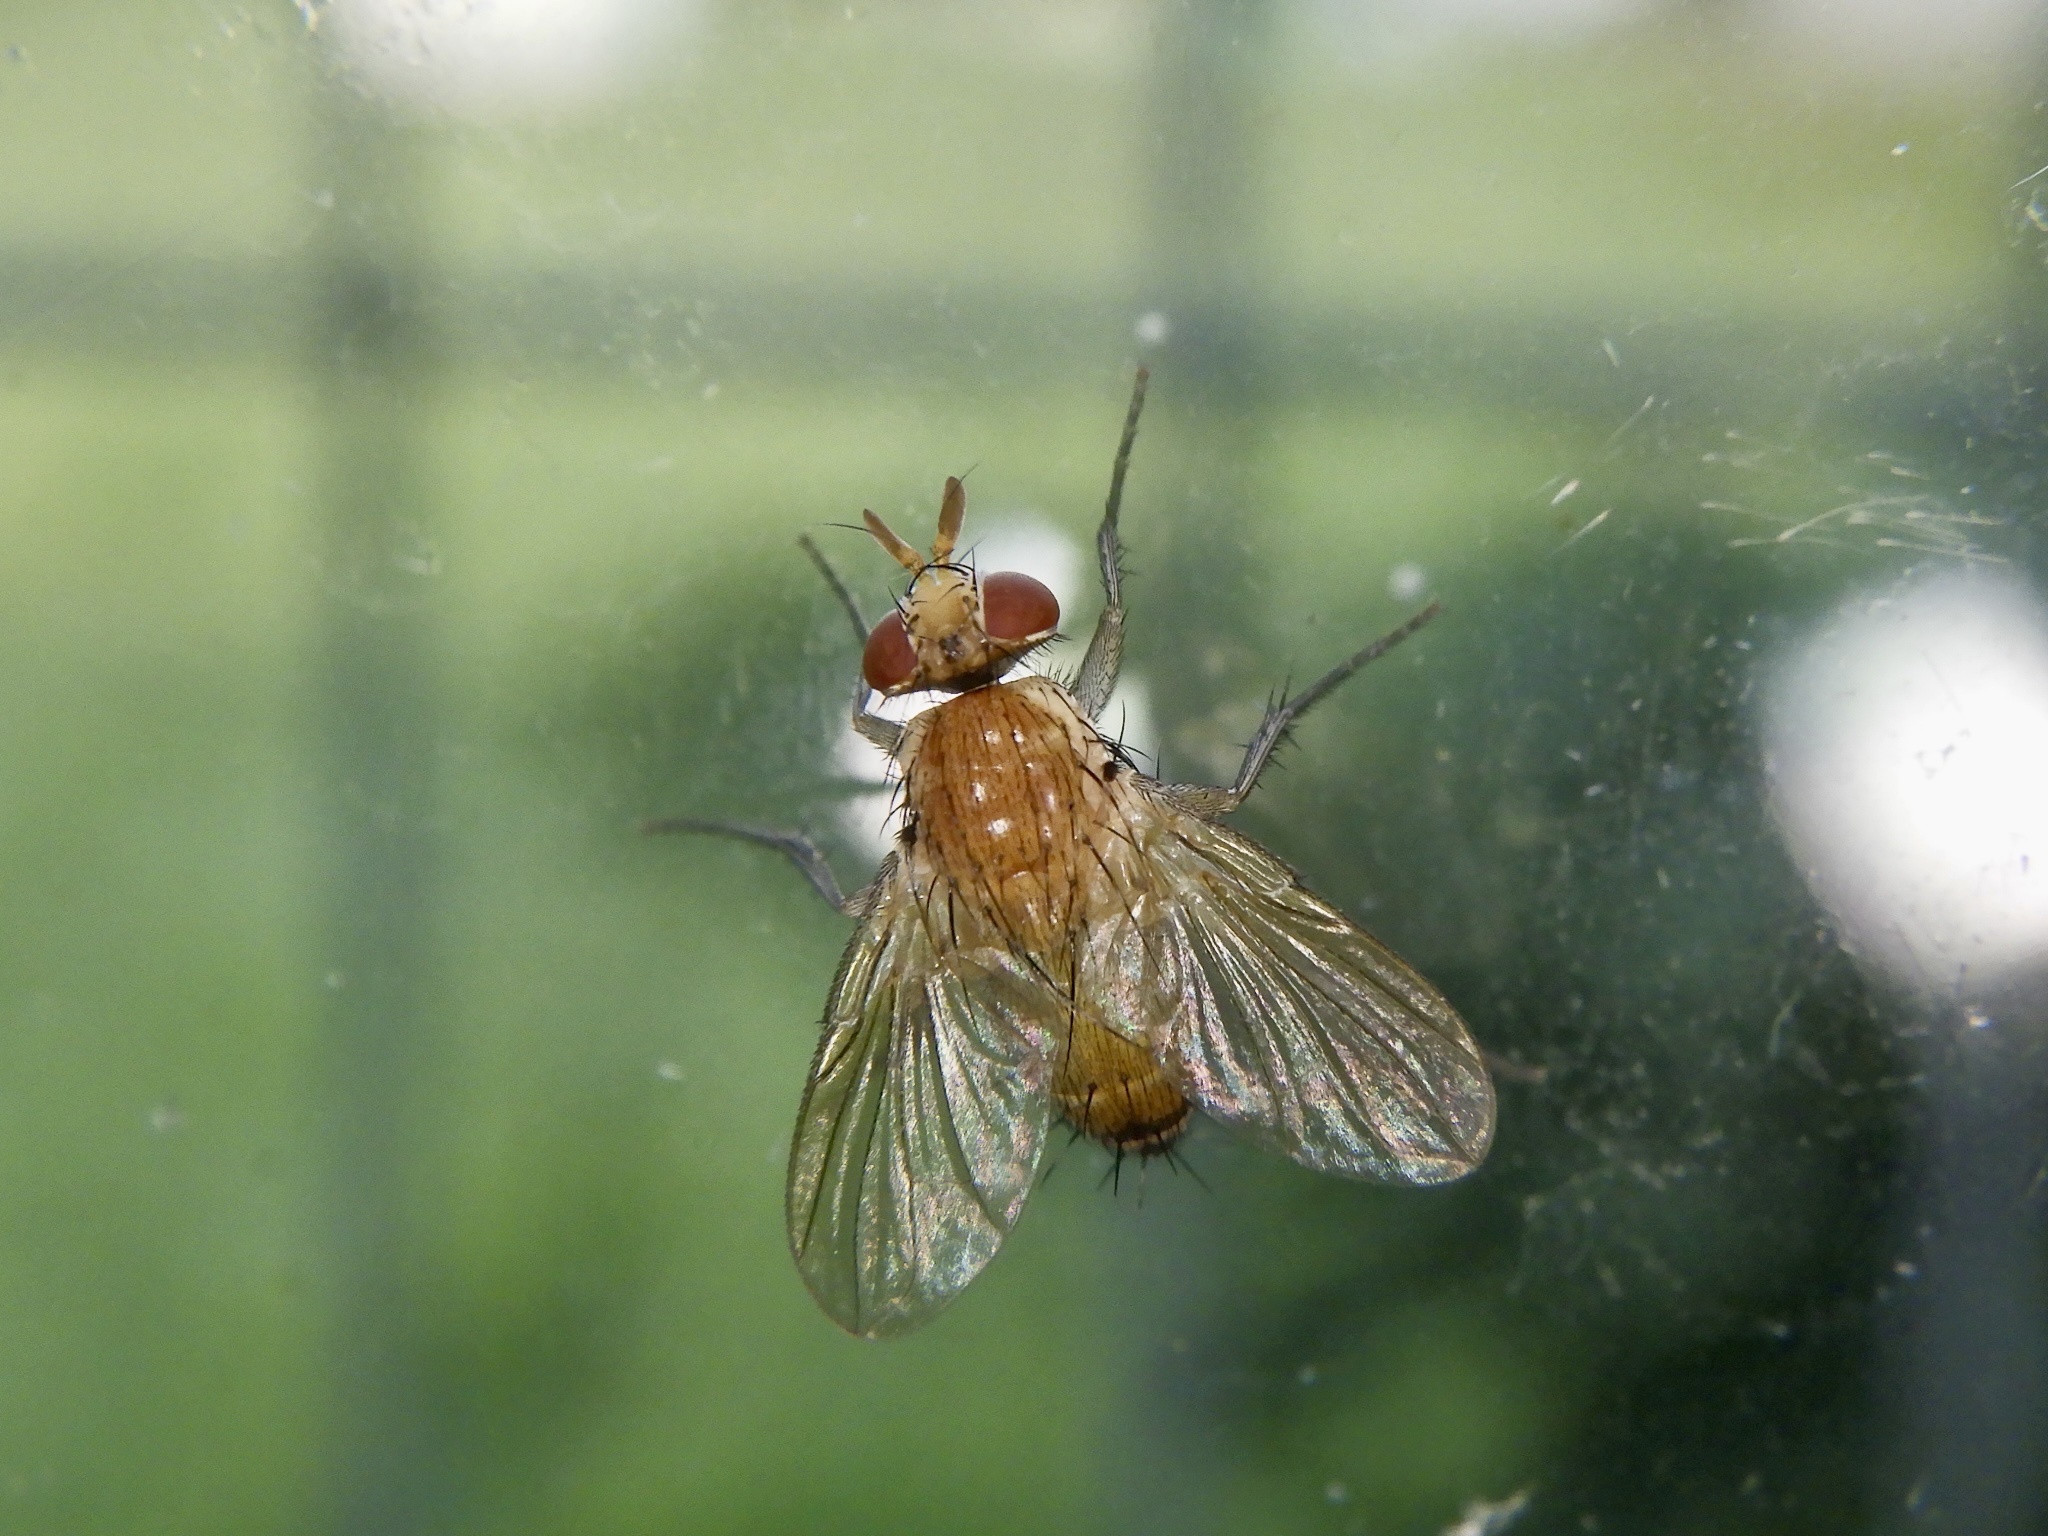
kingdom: Animalia
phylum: Arthropoda
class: Insecta
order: Diptera
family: Tachinidae
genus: Ceromya
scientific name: Ceromya silacea
